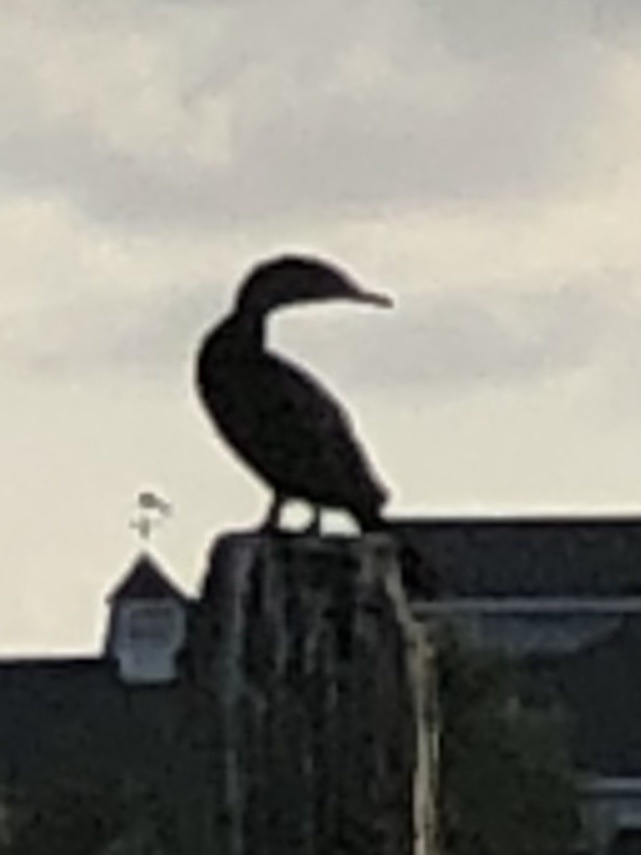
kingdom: Animalia
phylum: Chordata
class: Aves
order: Suliformes
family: Phalacrocoracidae
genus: Phalacrocorax
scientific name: Phalacrocorax auritus
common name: Double-crested cormorant
